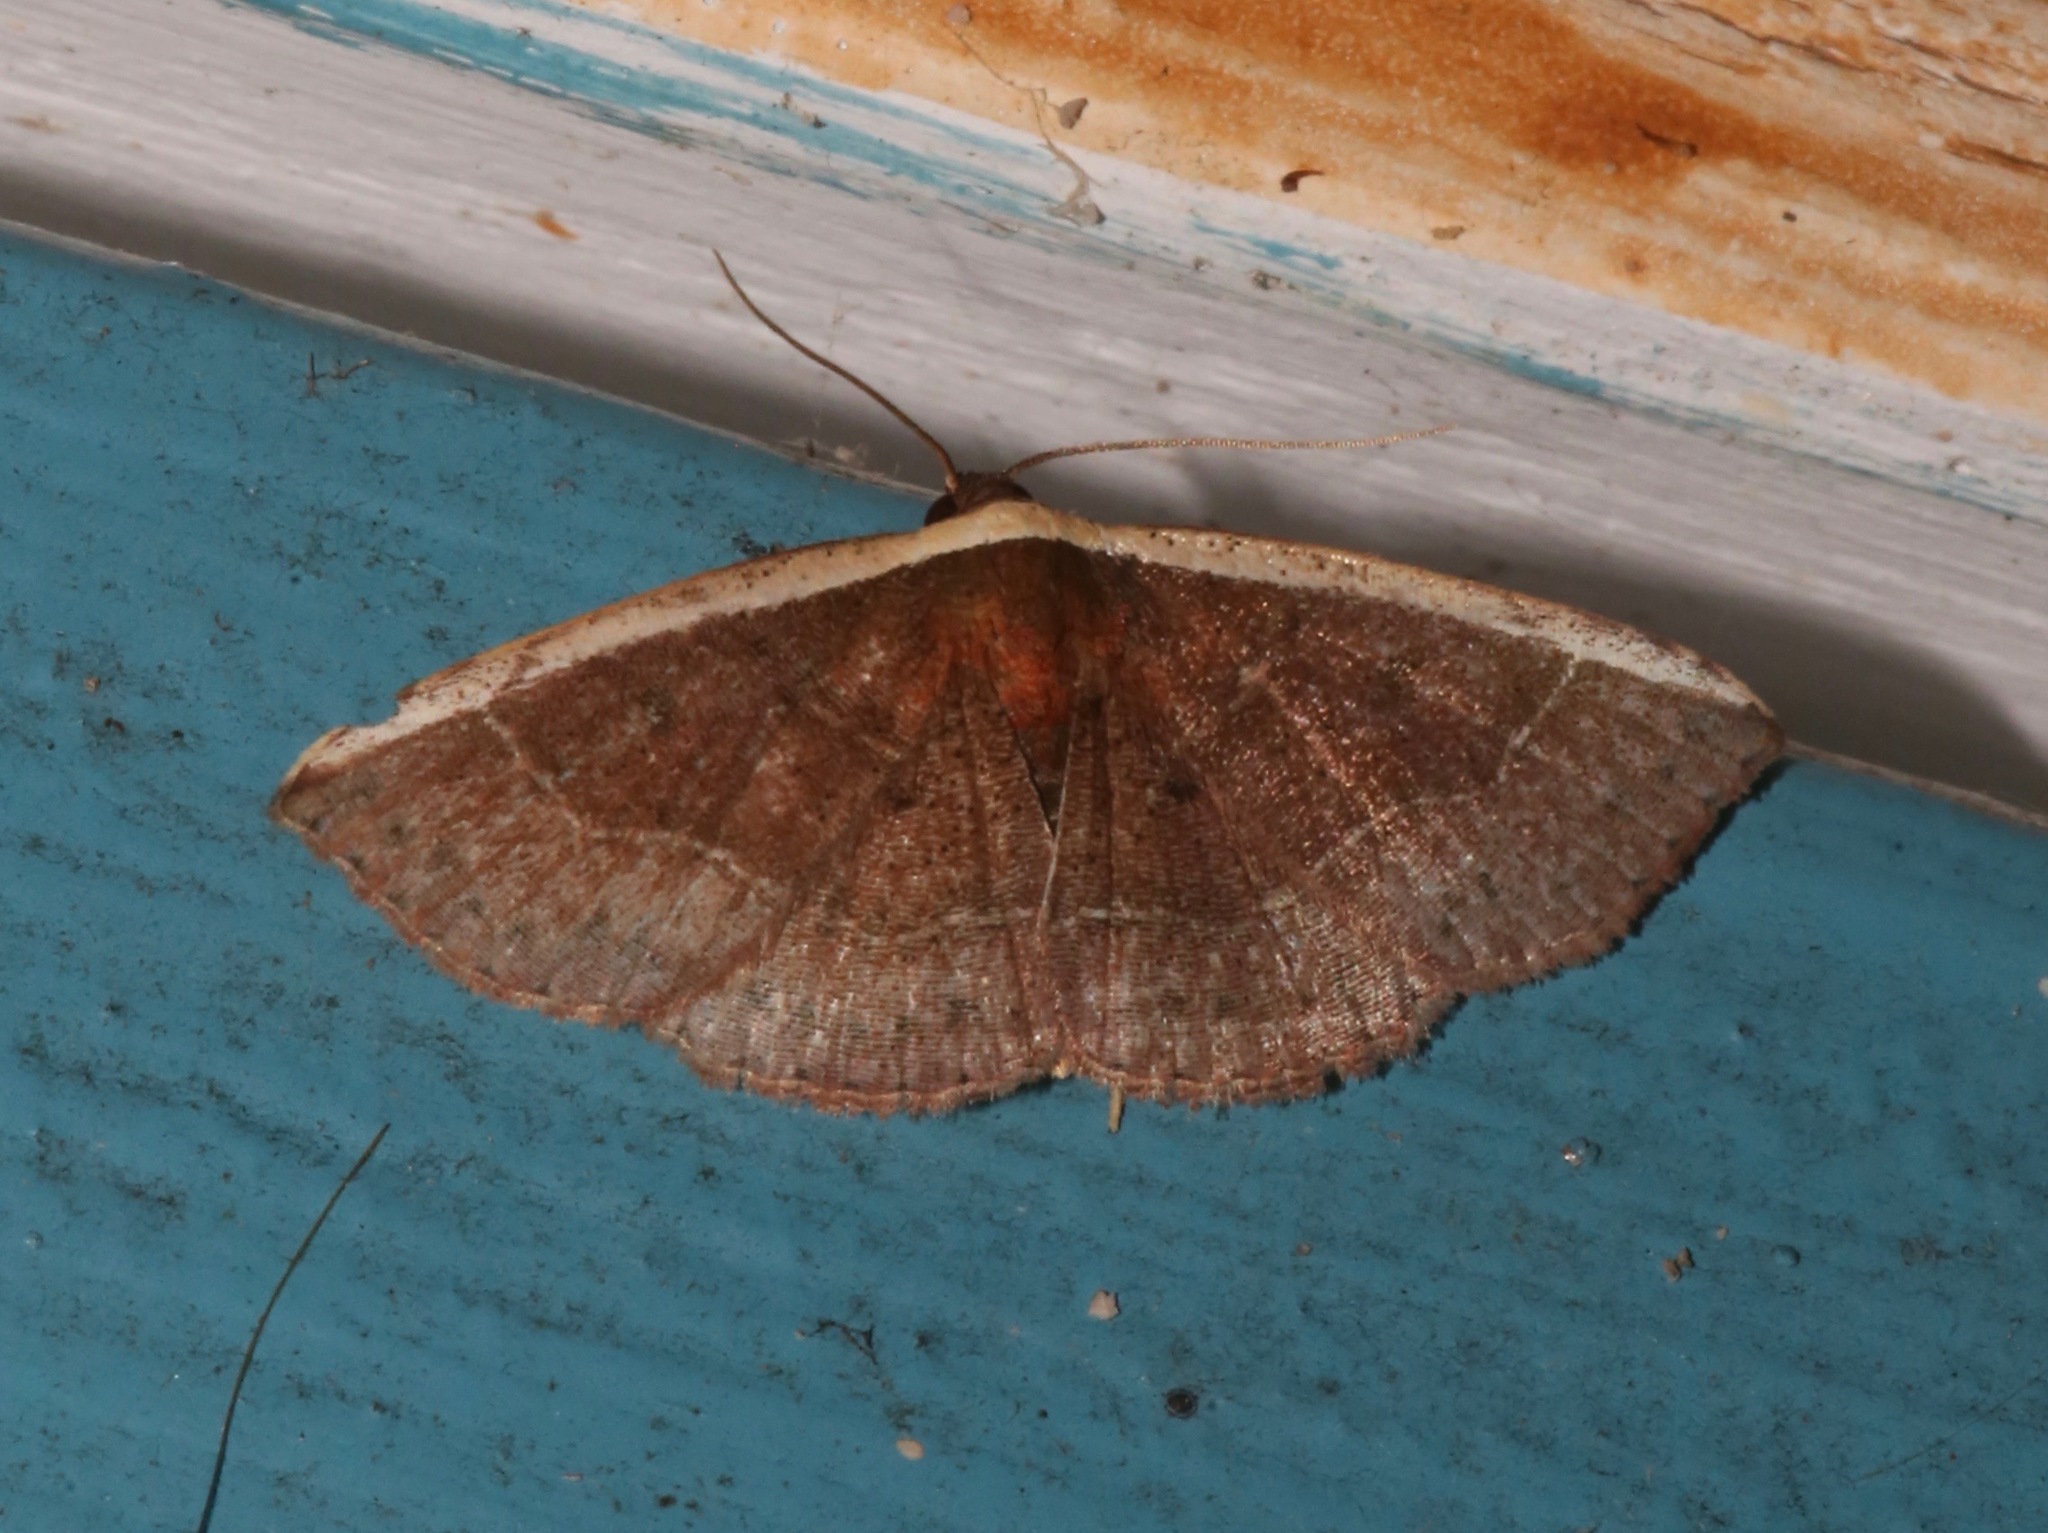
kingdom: Animalia
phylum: Arthropoda
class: Insecta
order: Lepidoptera
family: Noctuidae
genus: Ozarba
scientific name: Ozarba albocostaliata
